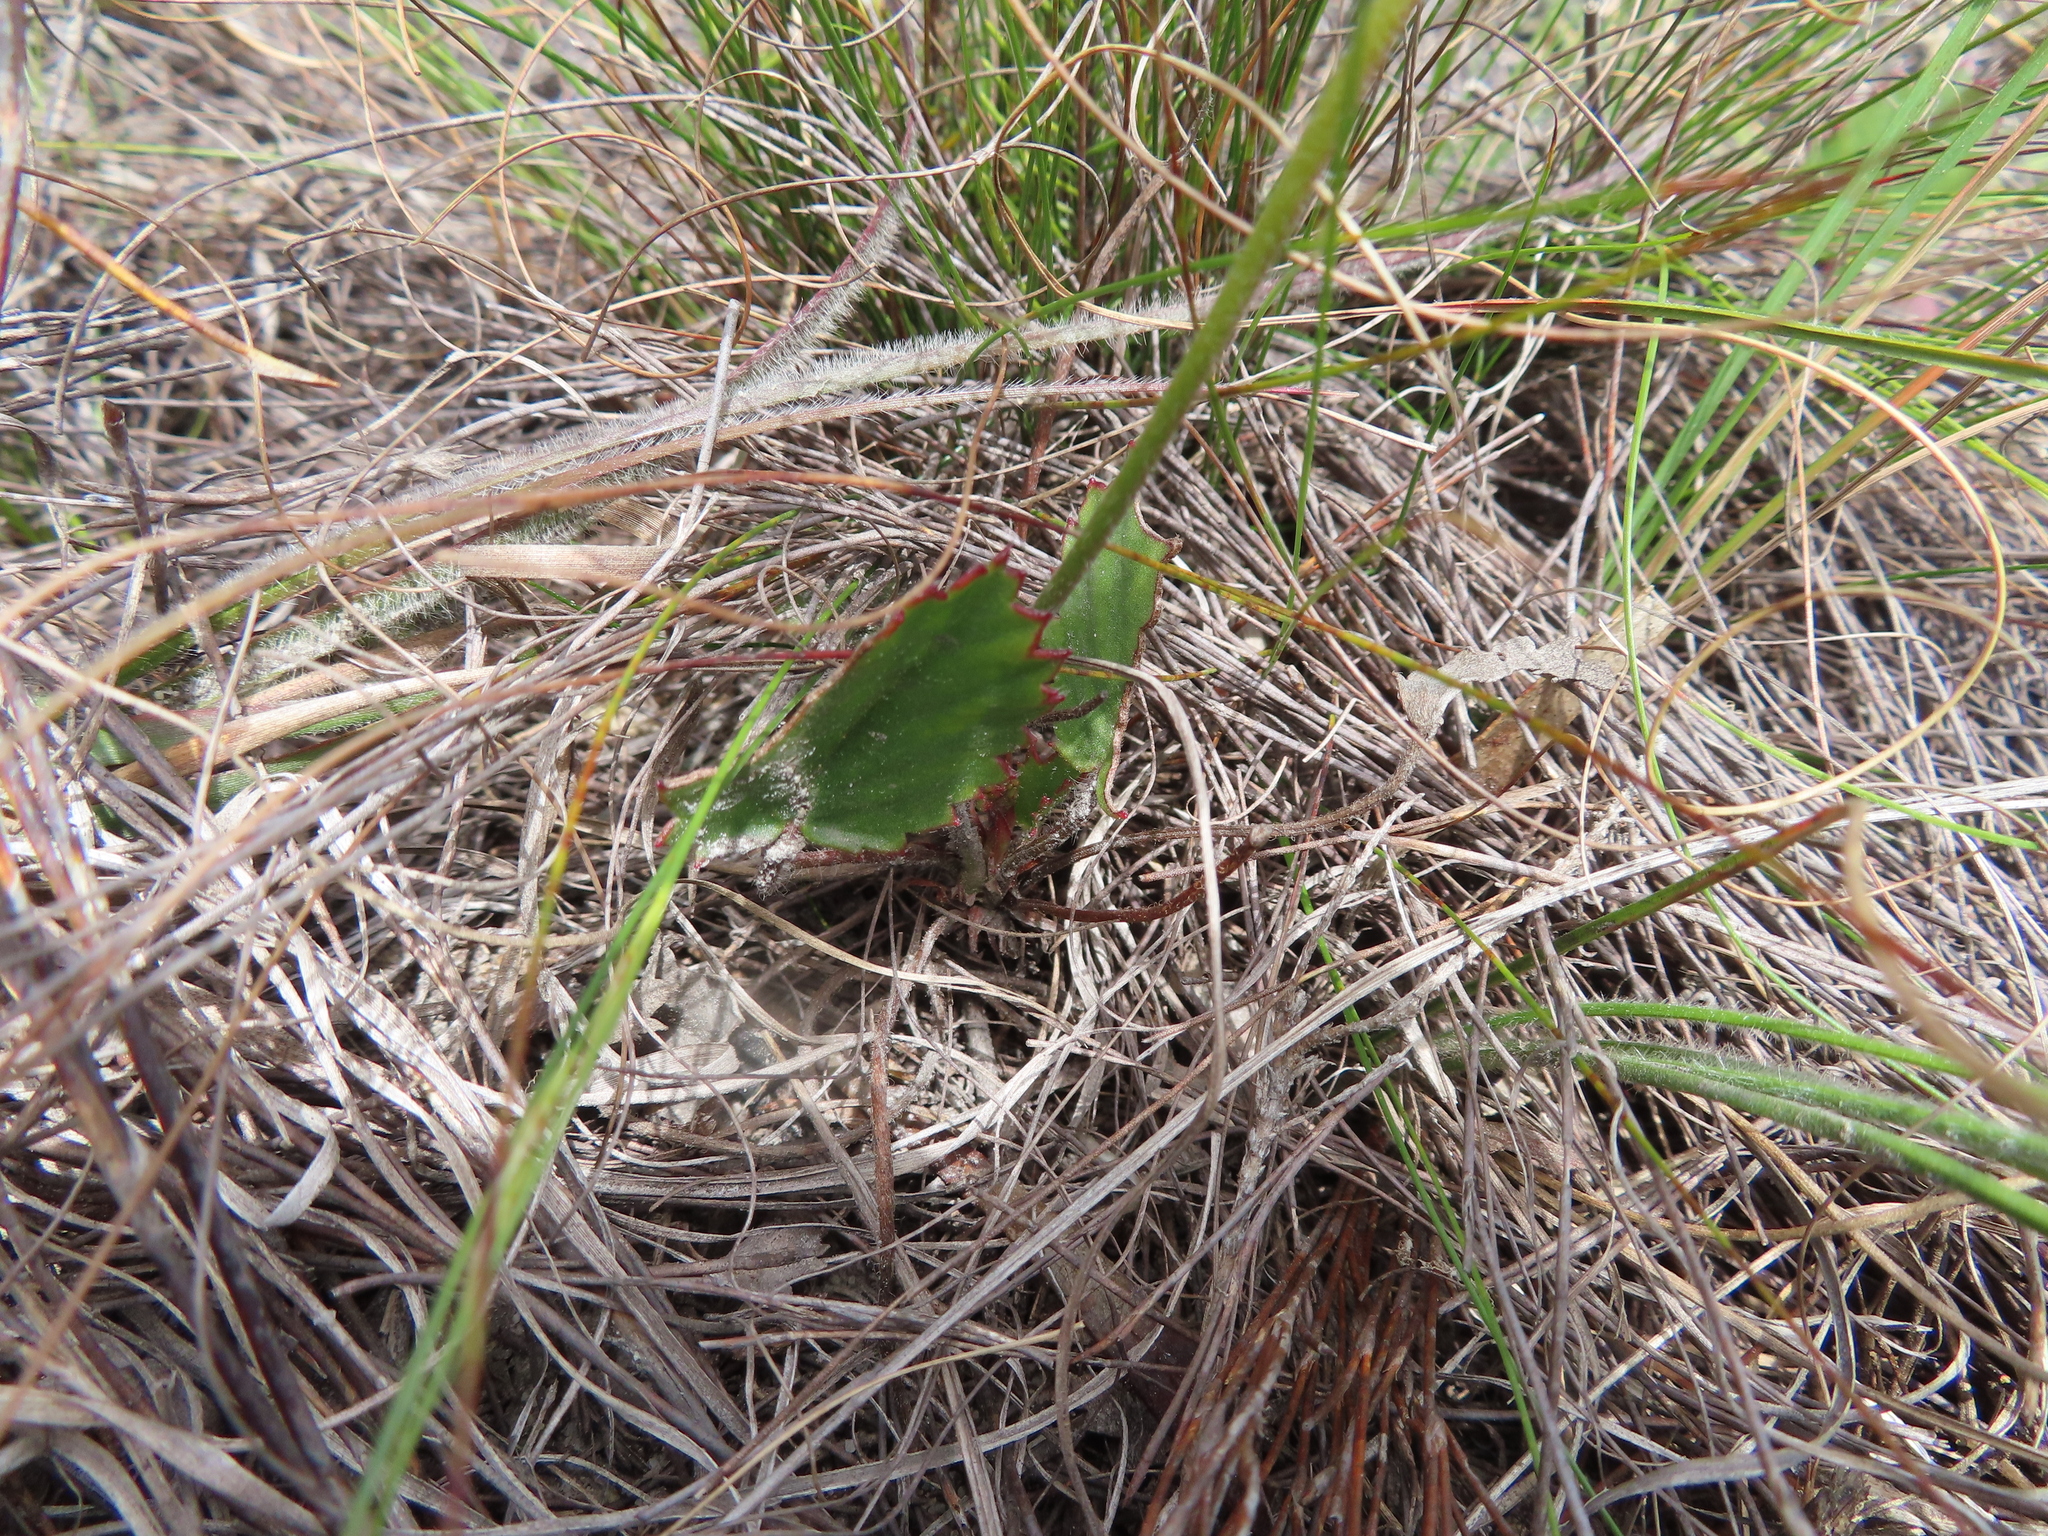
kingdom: Plantae
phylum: Tracheophyta
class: Magnoliopsida
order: Geraniales
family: Geraniaceae
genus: Pelargonium
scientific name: Pelargonium elegans
